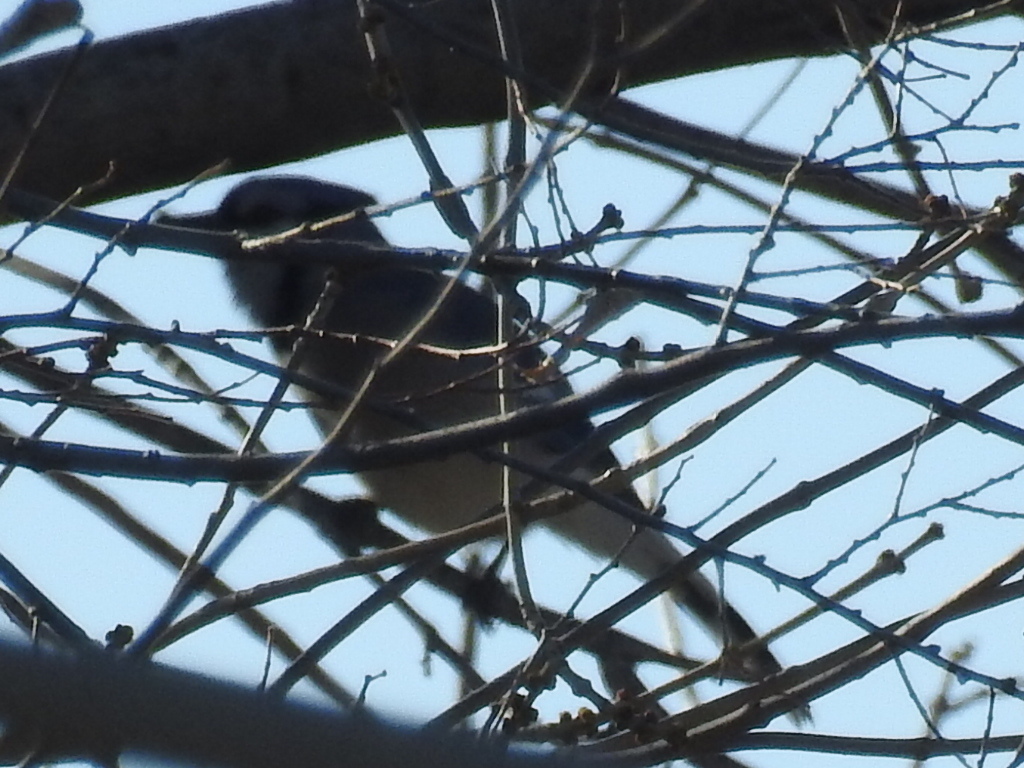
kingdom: Animalia
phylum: Chordata
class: Aves
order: Passeriformes
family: Corvidae
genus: Cyanocitta
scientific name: Cyanocitta cristata
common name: Blue jay
